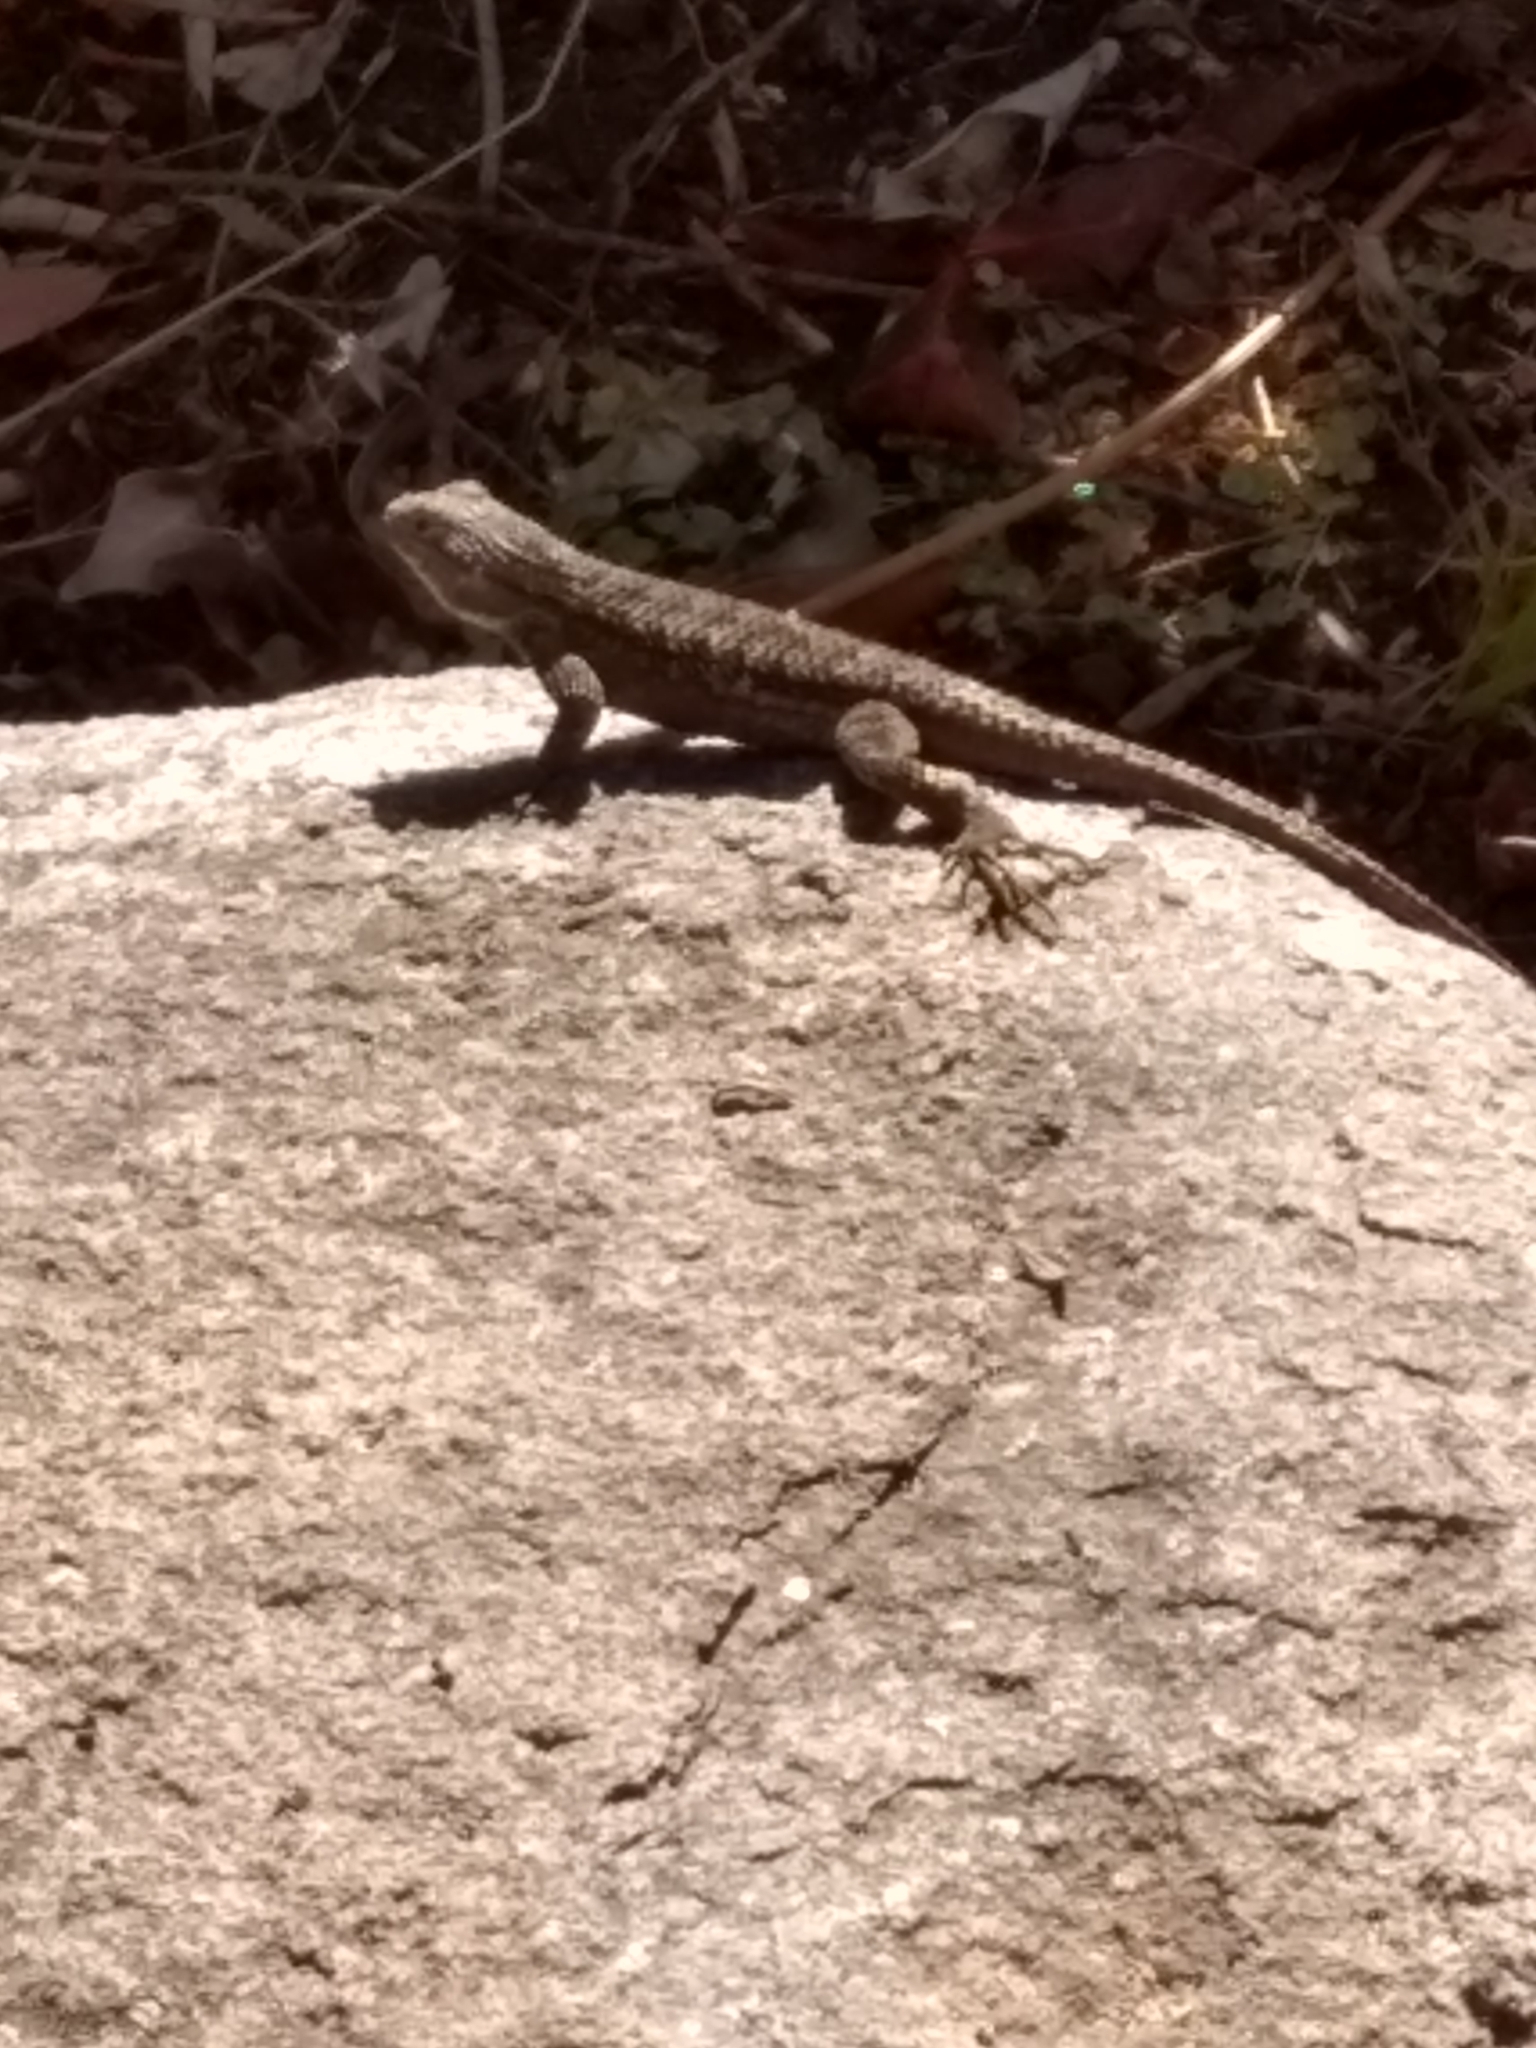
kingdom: Animalia
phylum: Chordata
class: Squamata
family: Phrynosomatidae
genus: Sceloporus
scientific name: Sceloporus occidentalis
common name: Western fence lizard
